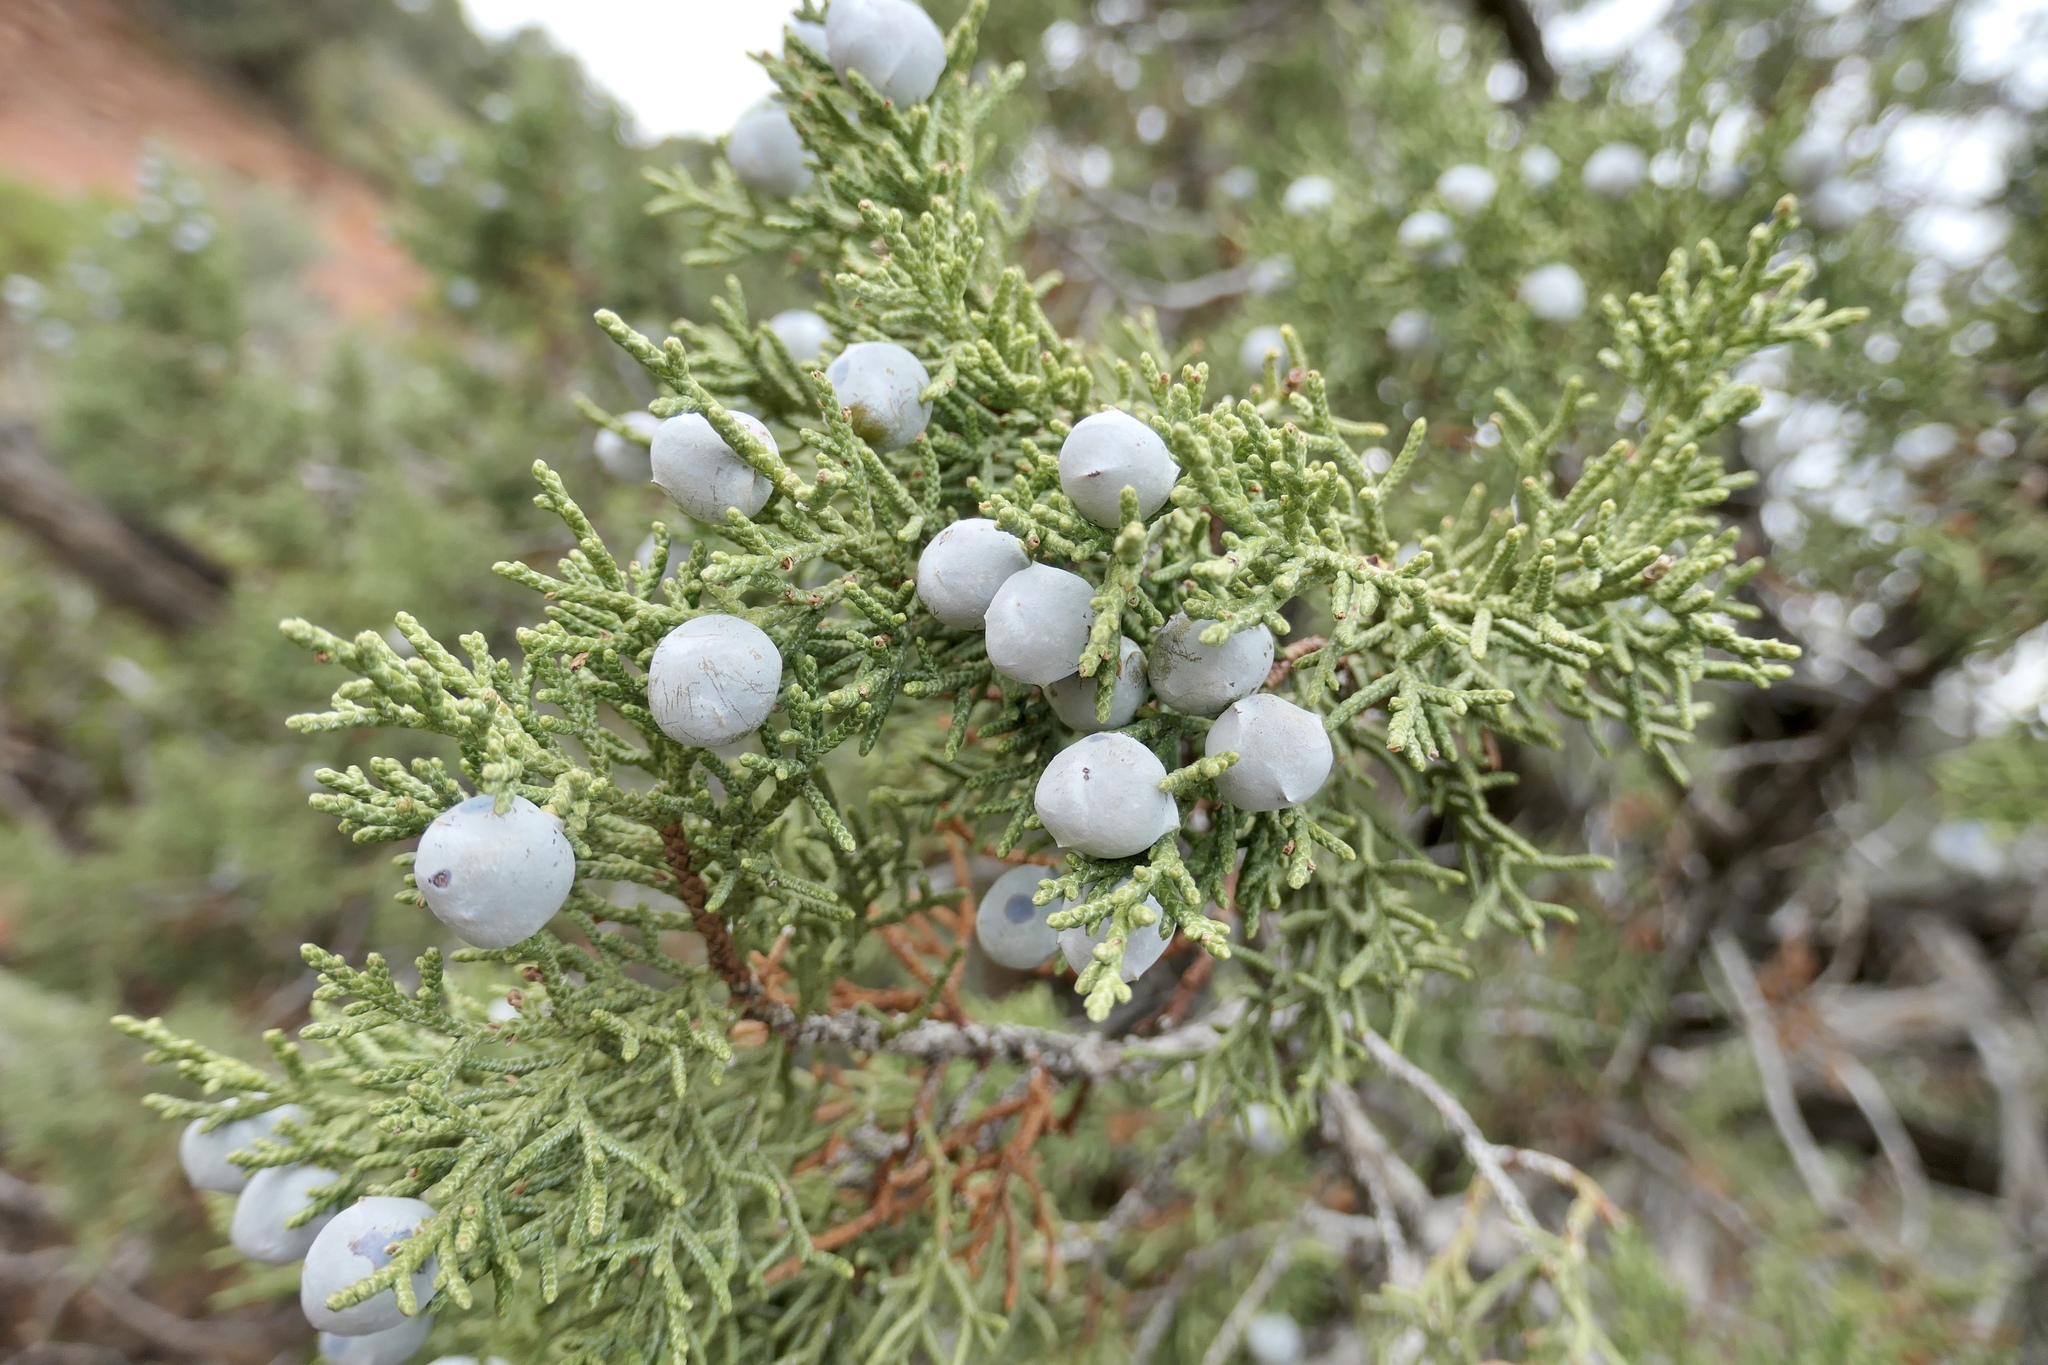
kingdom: Plantae
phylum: Tracheophyta
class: Pinopsida
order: Pinales
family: Cupressaceae
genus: Juniperus
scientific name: Juniperus osteosperma
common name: Utah juniper
